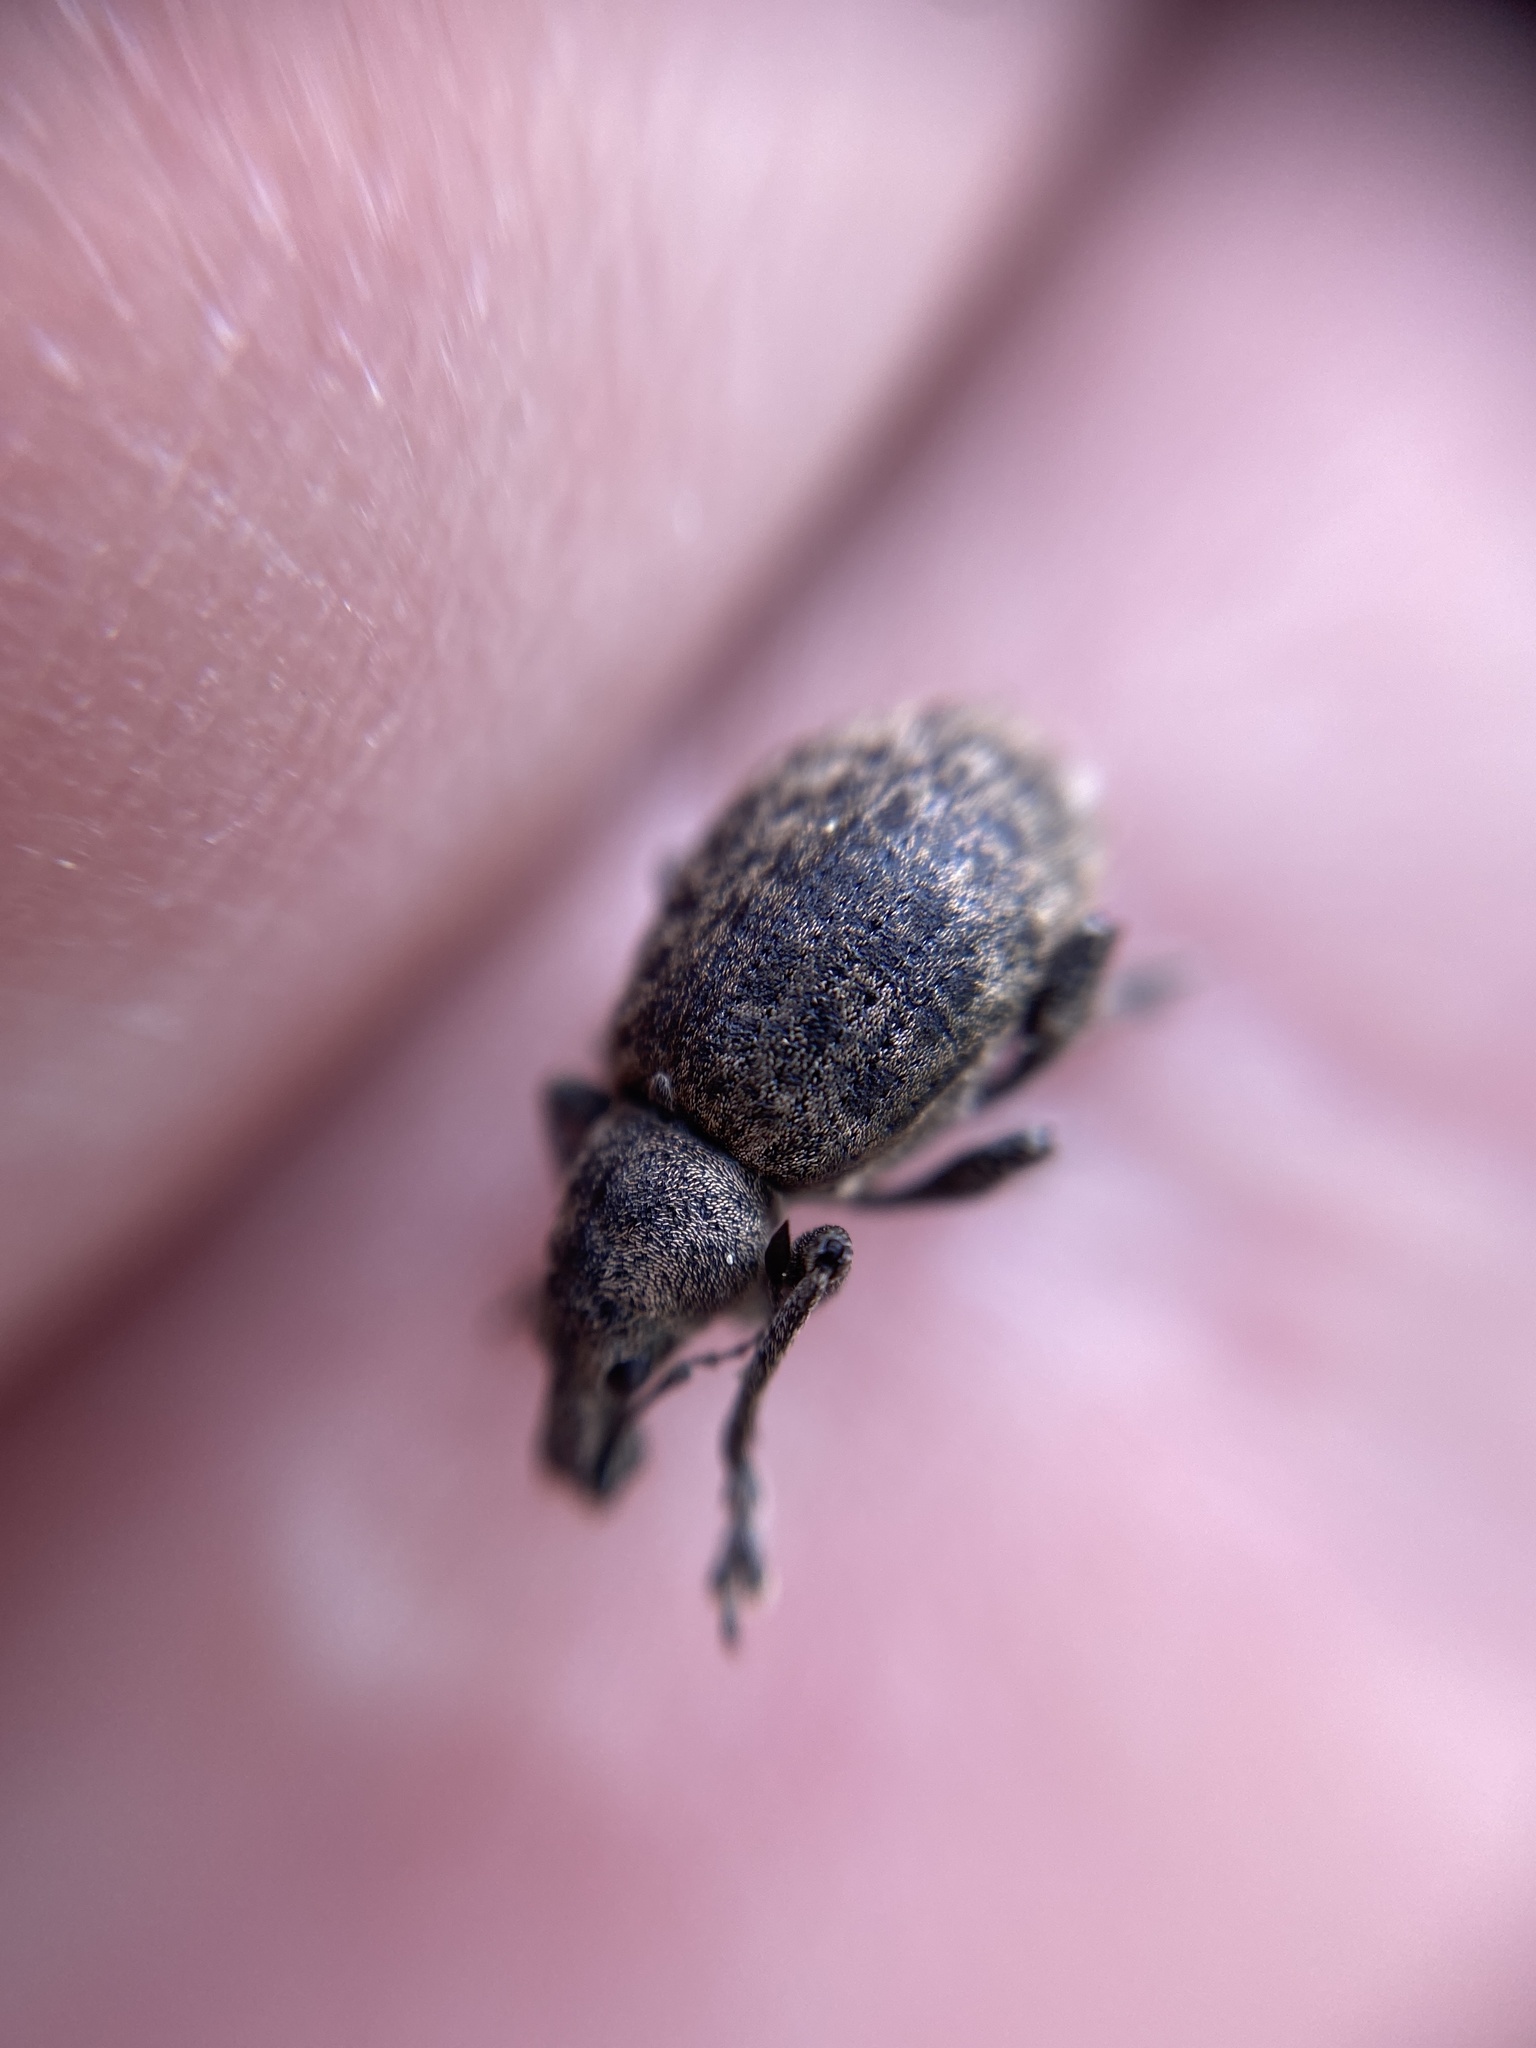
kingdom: Animalia
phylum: Arthropoda
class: Insecta
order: Coleoptera
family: Curculionidae
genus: Liophloeus
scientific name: Liophloeus tessulatus
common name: Weevil
